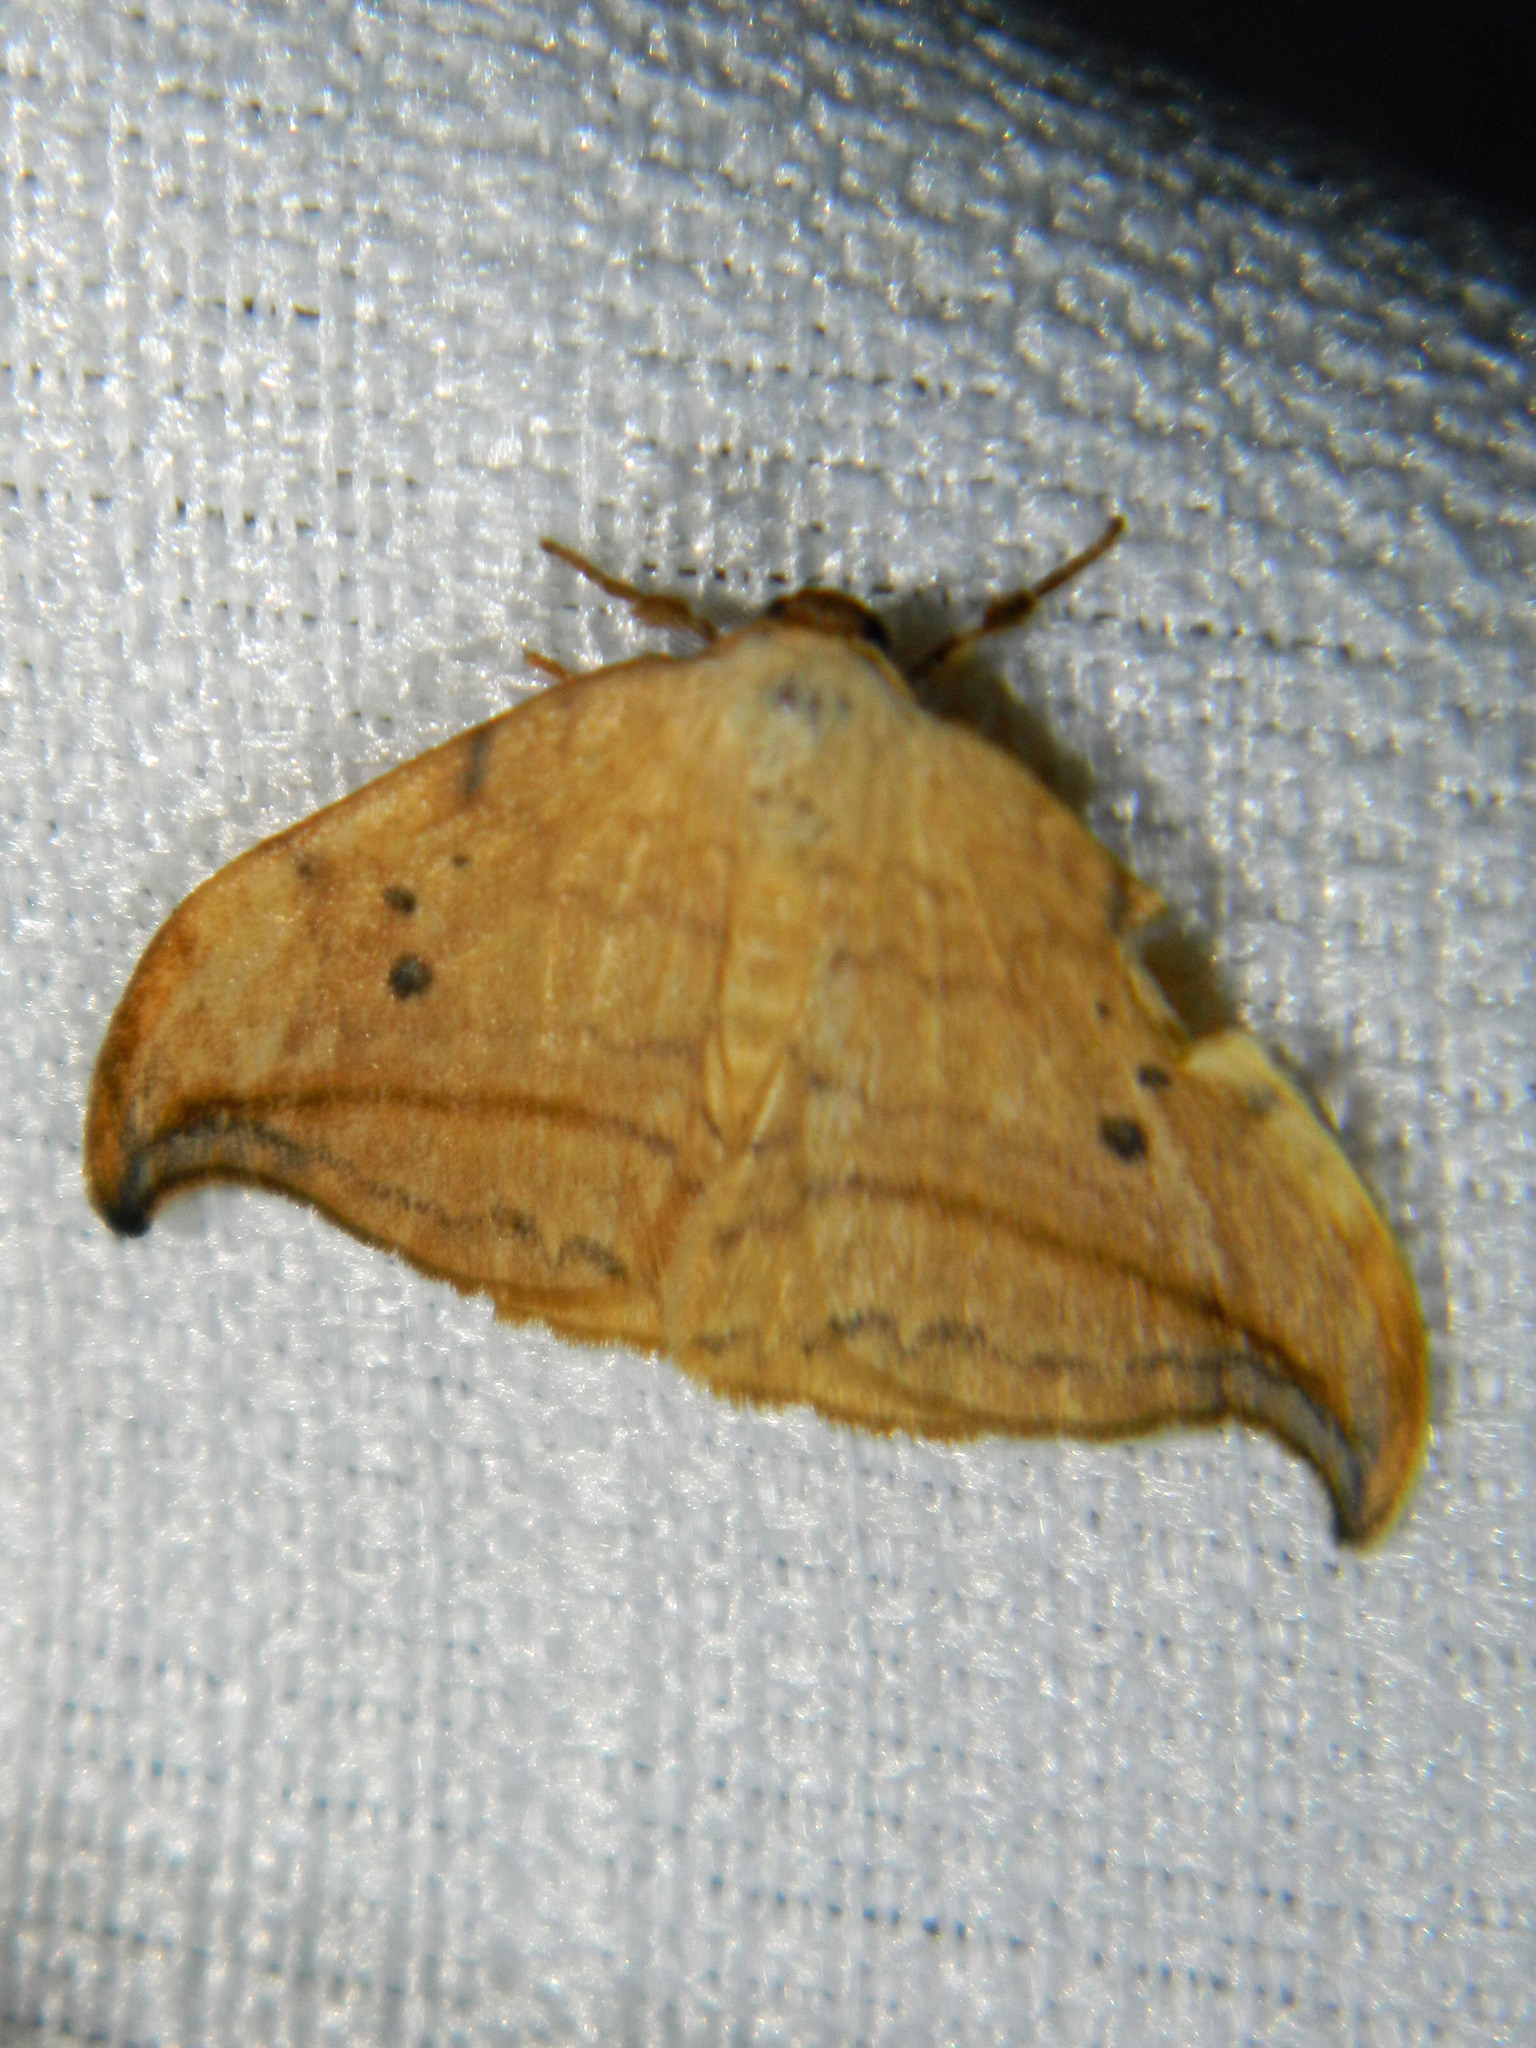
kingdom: Animalia
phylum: Arthropoda
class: Insecta
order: Lepidoptera
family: Drepanidae
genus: Drepana
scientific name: Drepana arcuata
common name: Arched hooktip moth
